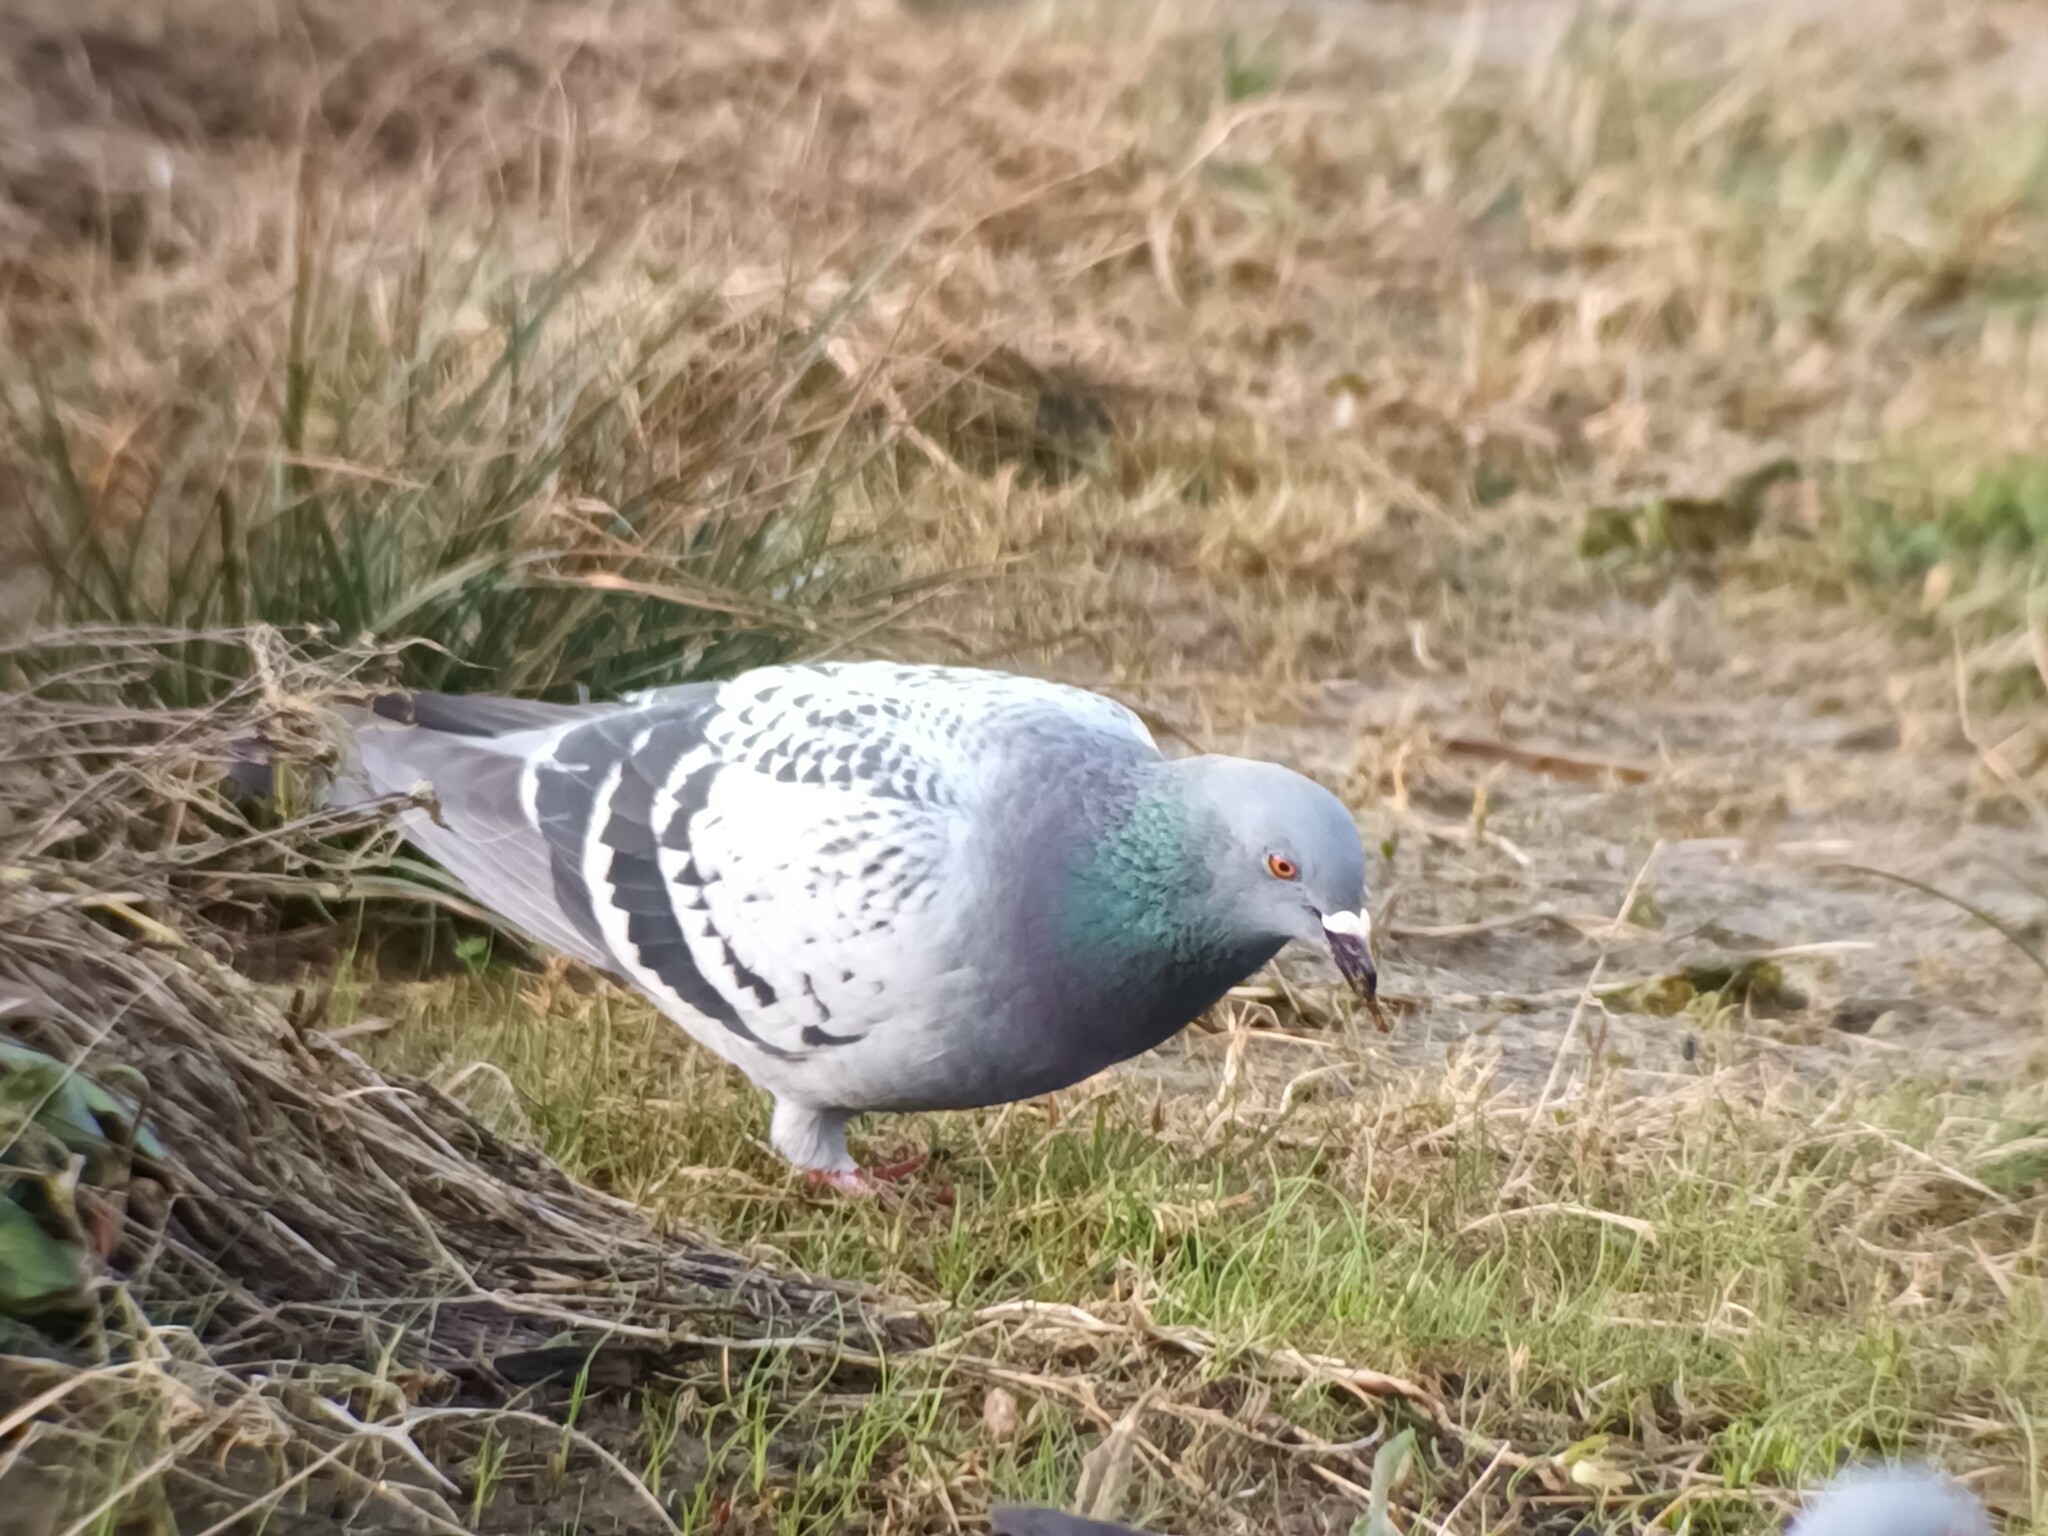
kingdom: Animalia
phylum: Chordata
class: Aves
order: Columbiformes
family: Columbidae
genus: Columba
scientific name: Columba livia
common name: Rock pigeon
